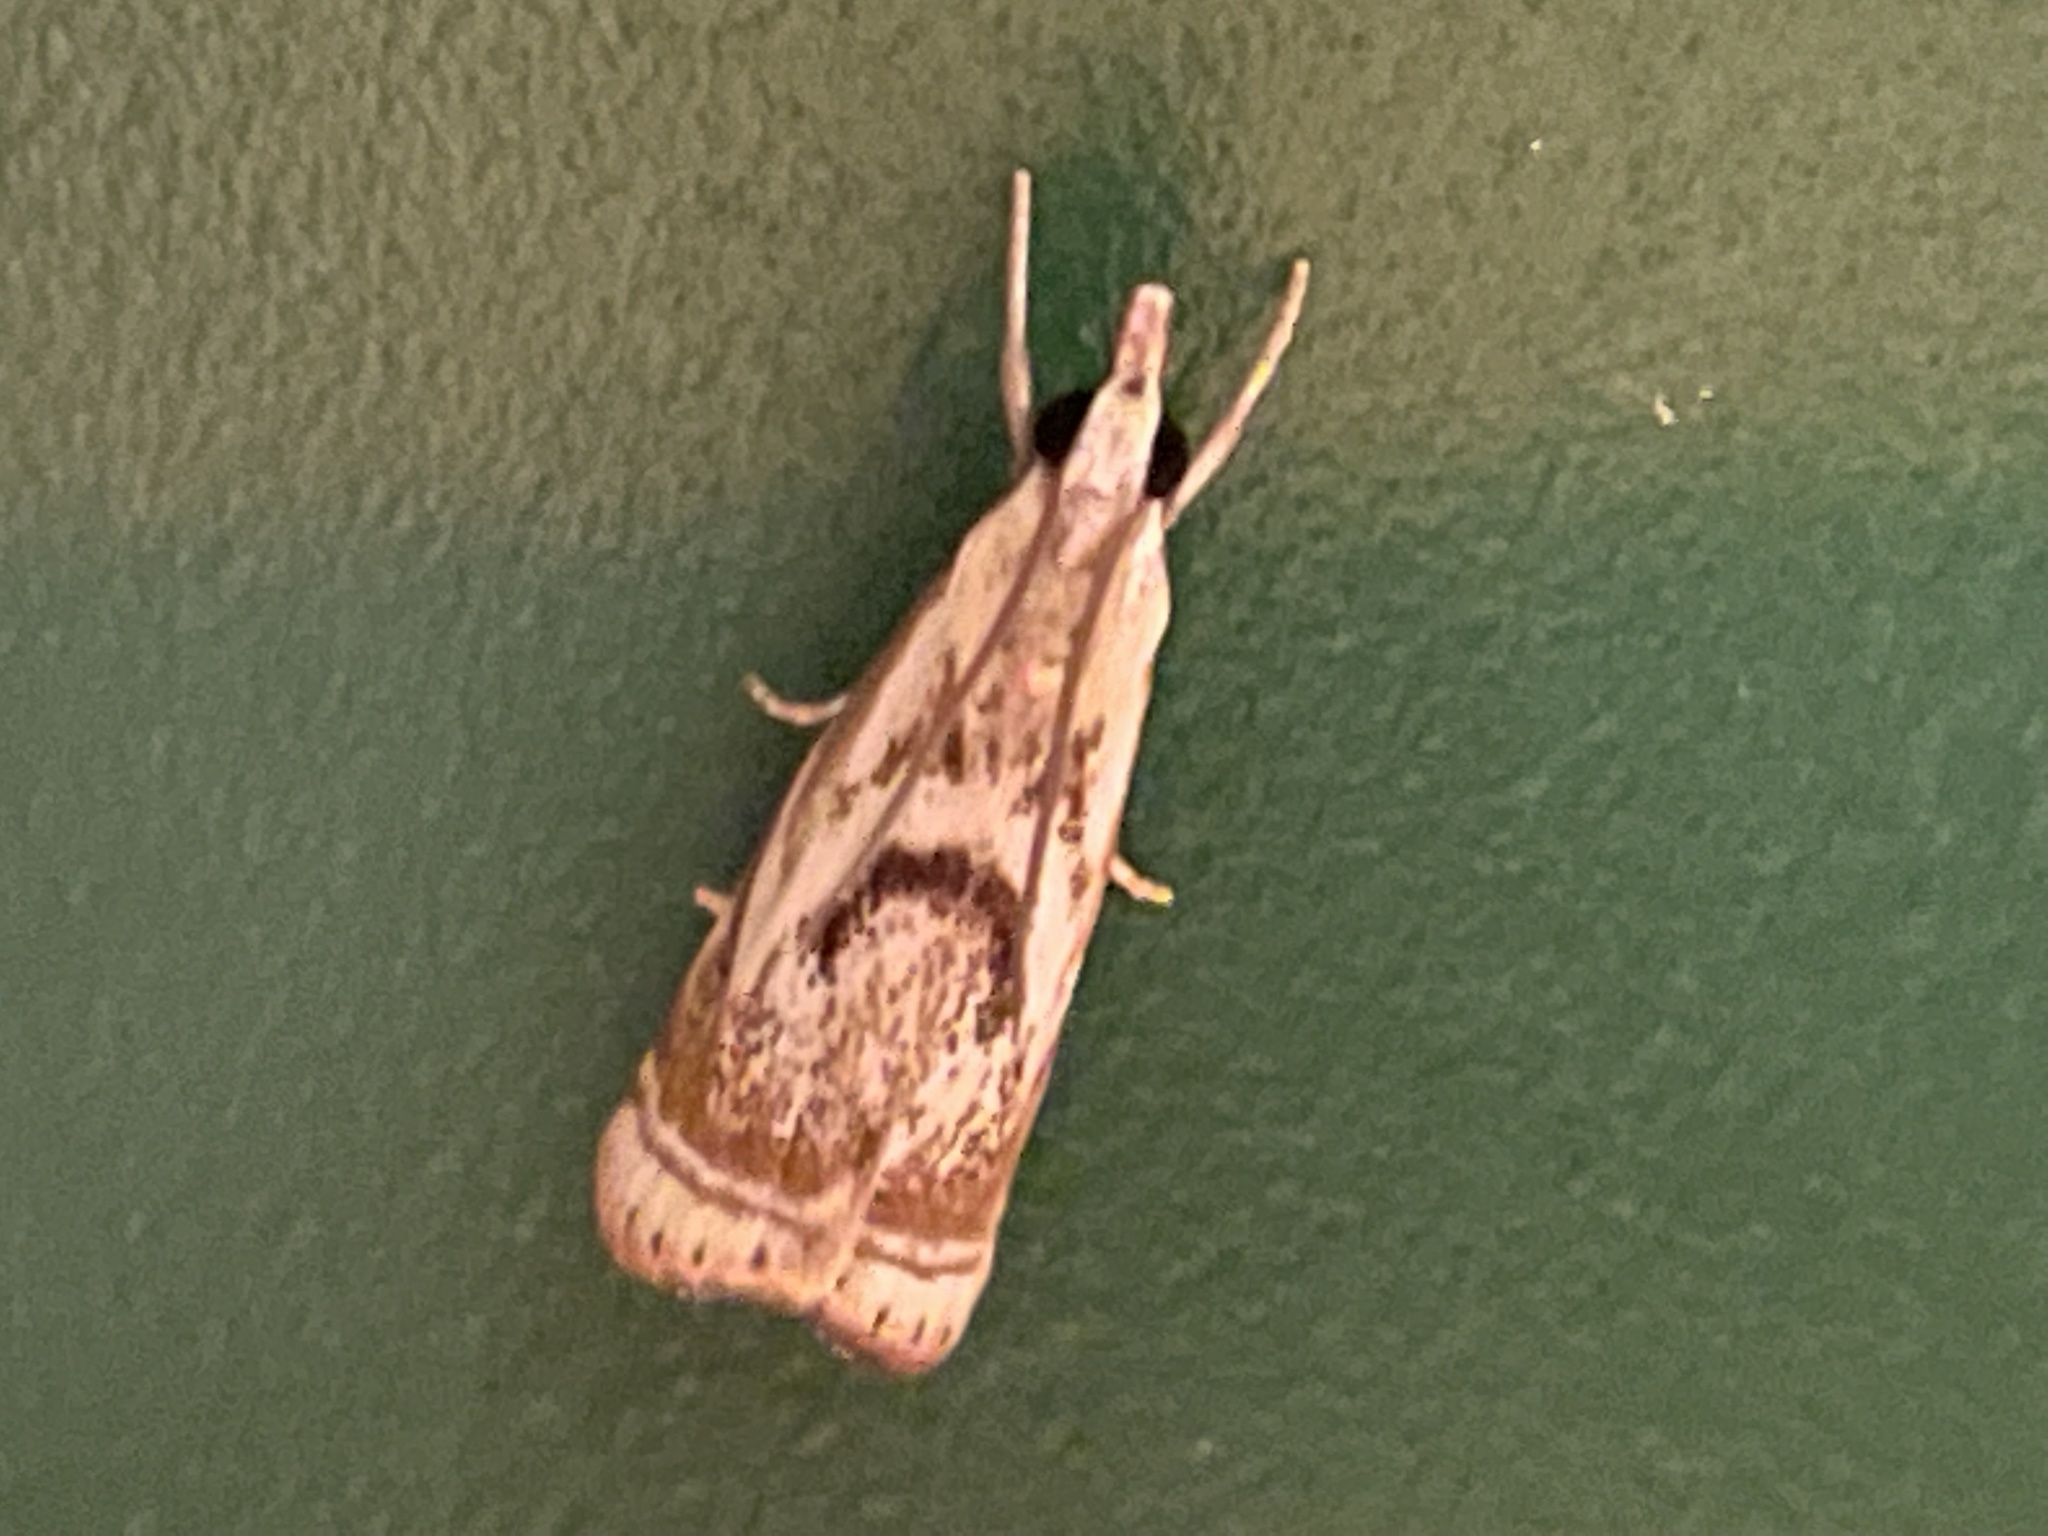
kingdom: Animalia
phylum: Arthropoda
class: Insecta
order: Lepidoptera
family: Crambidae
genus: Microcrambus
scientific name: Microcrambus elegans
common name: Elegant grass-veneer
